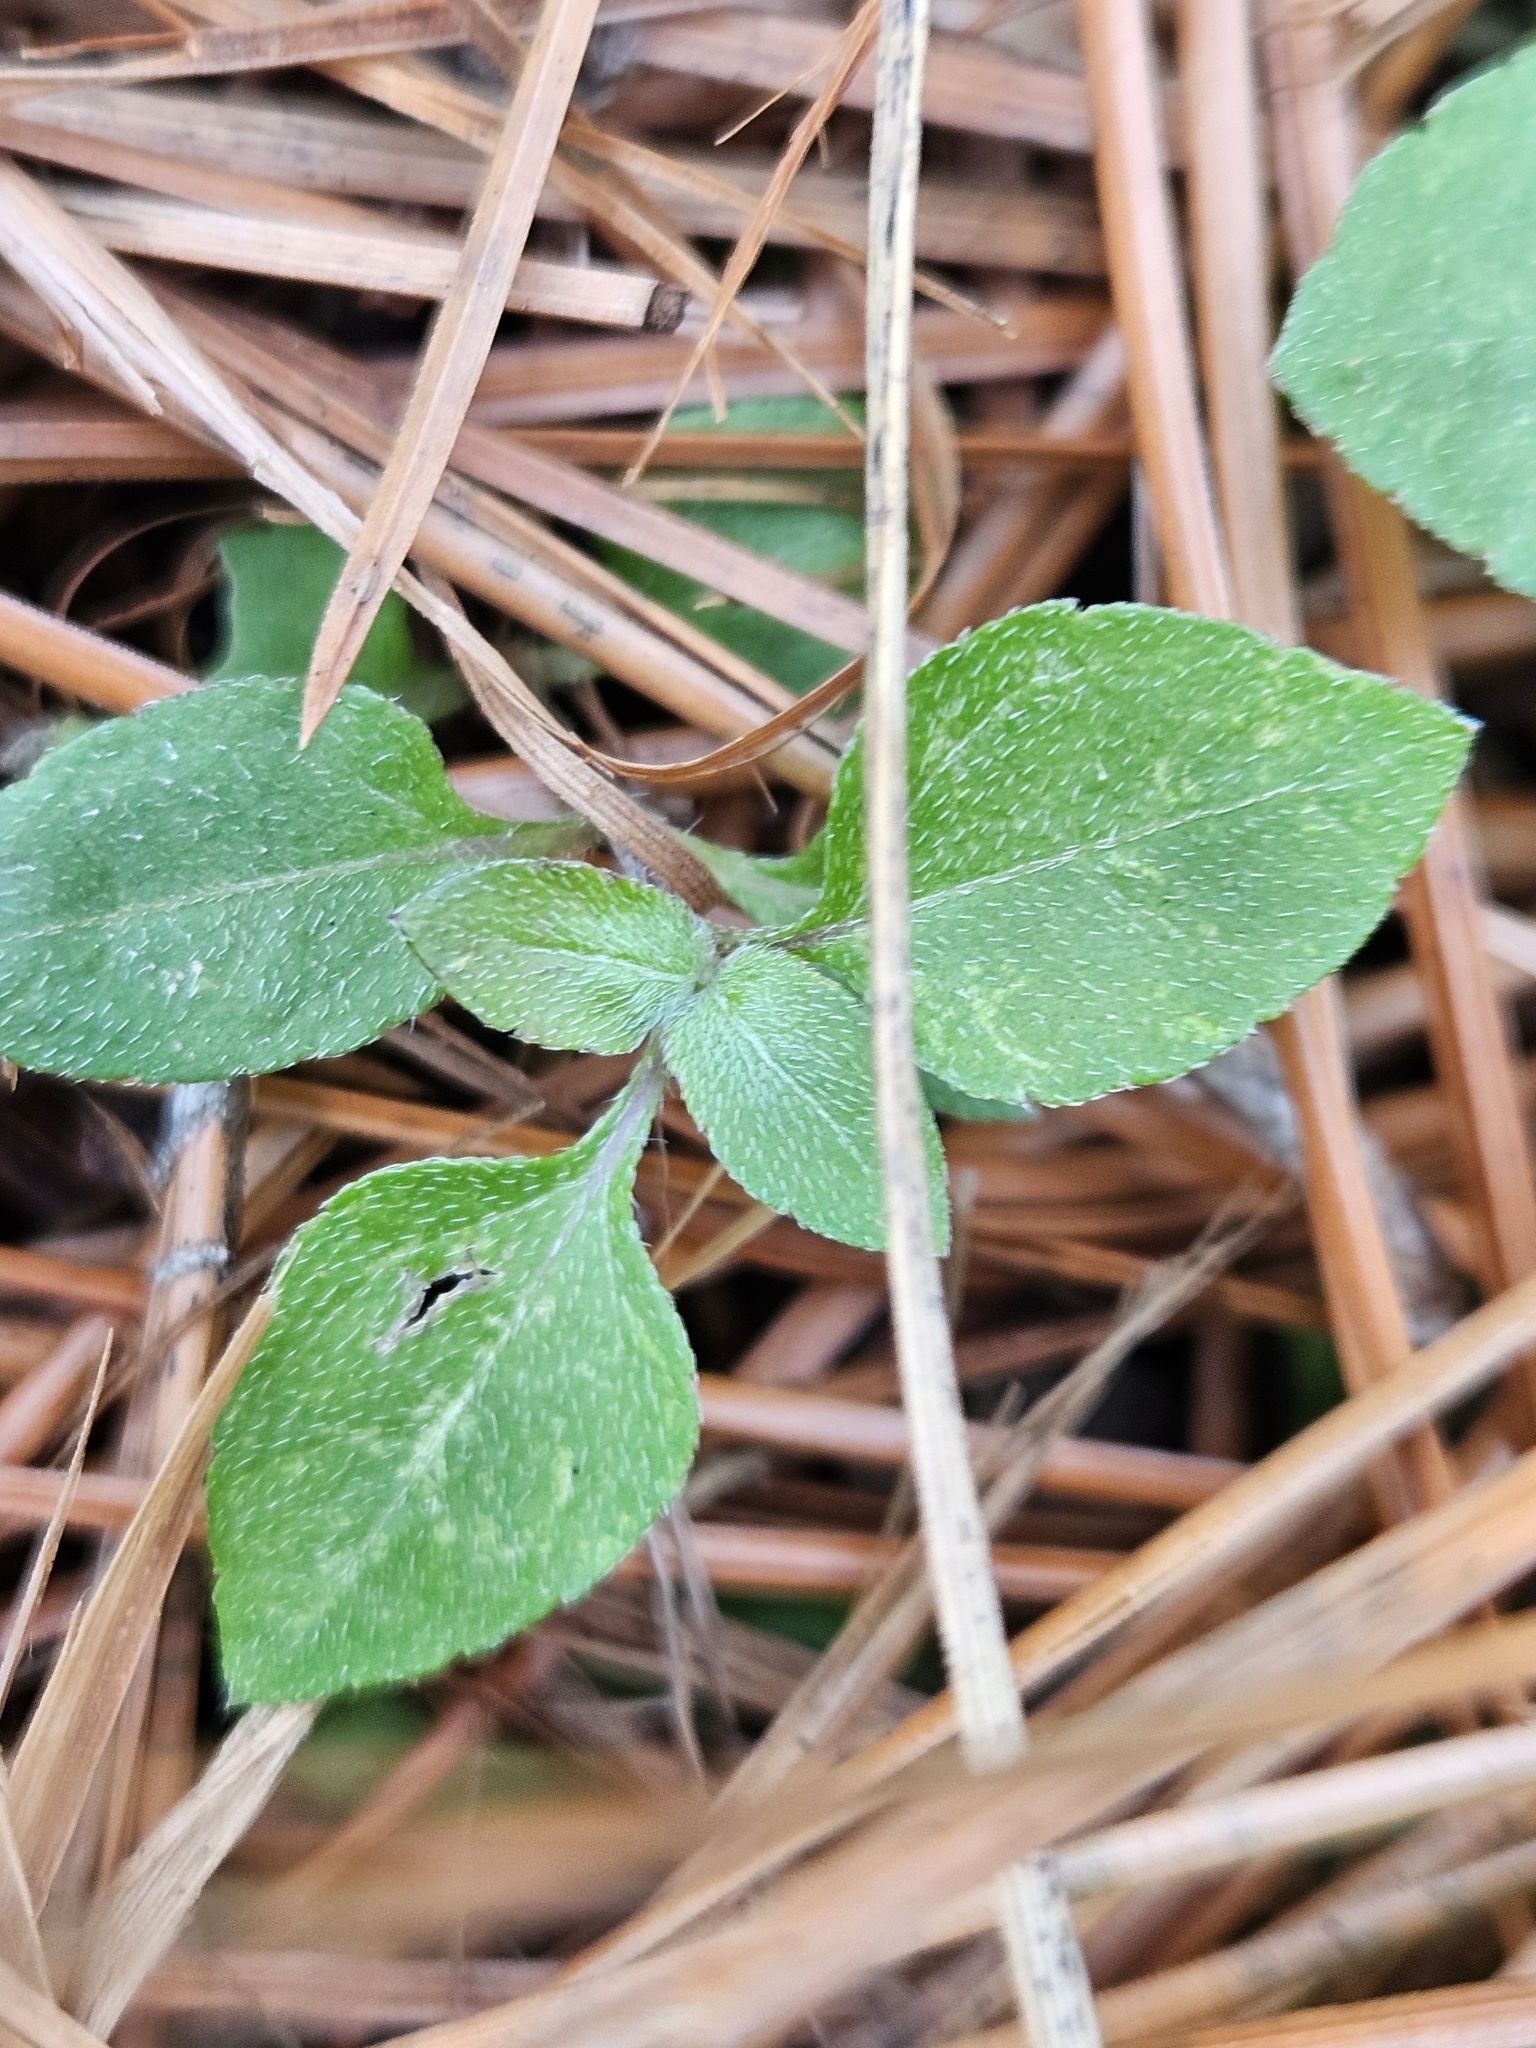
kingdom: Plantae
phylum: Tracheophyta
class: Magnoliopsida
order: Asterales
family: Asteraceae
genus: Calyptocarpus
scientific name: Calyptocarpus vialis
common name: Straggler daisy
